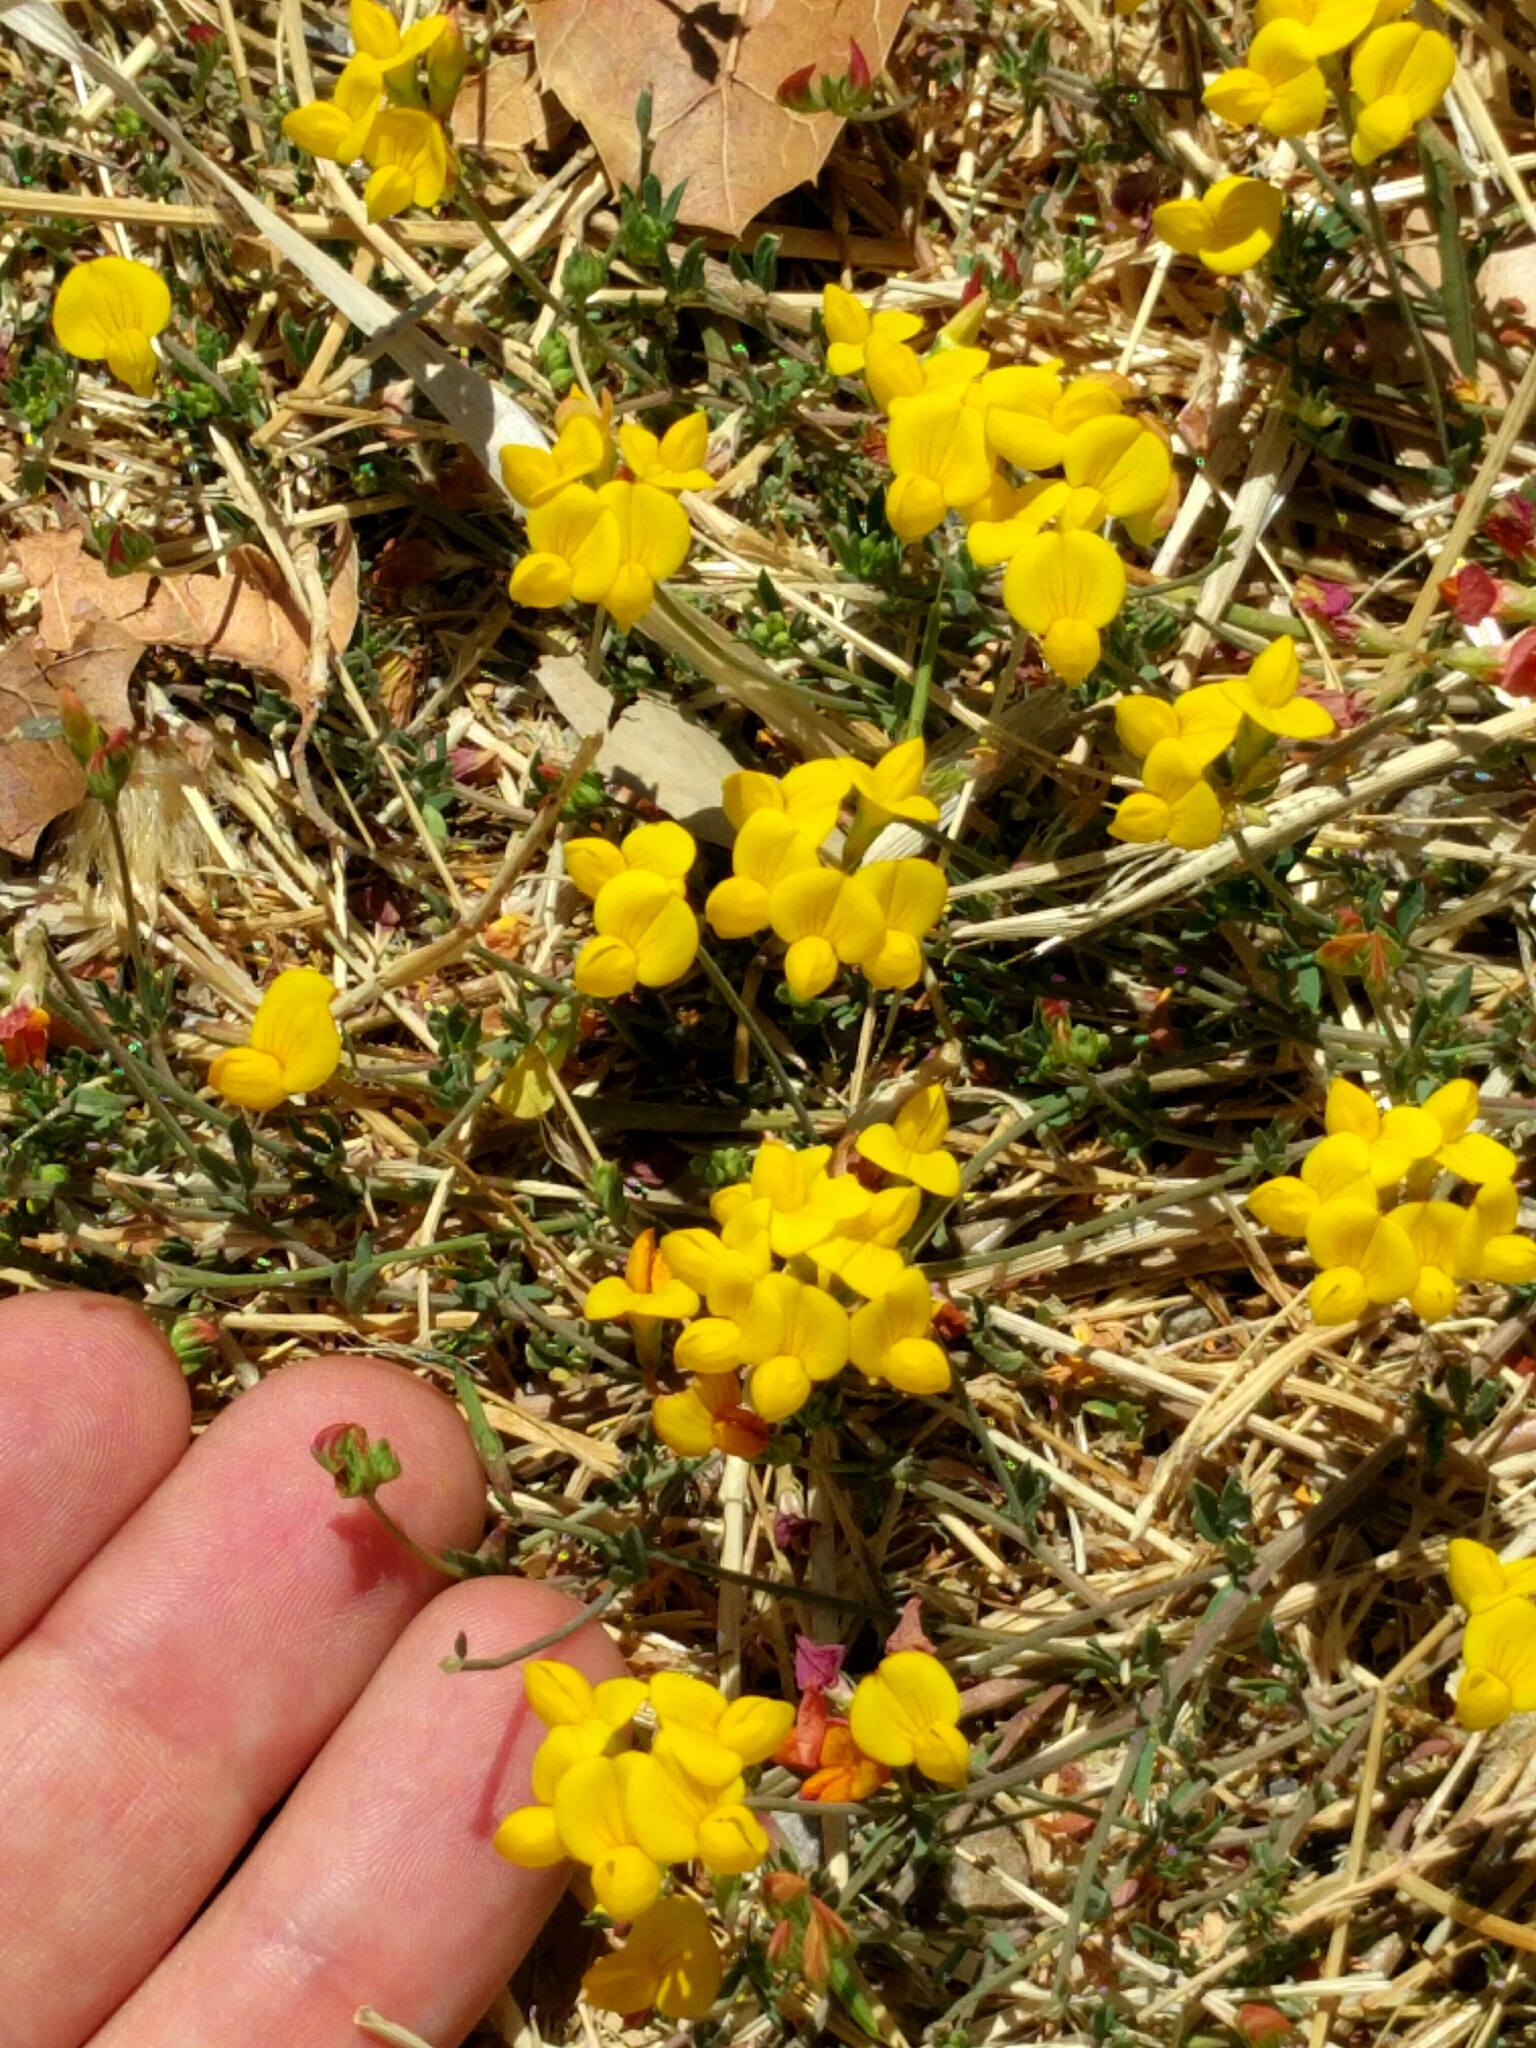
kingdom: Plantae
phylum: Tracheophyta
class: Magnoliopsida
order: Fabales
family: Fabaceae
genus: Lotus
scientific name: Lotus corniculatus
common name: Common bird's-foot-trefoil
